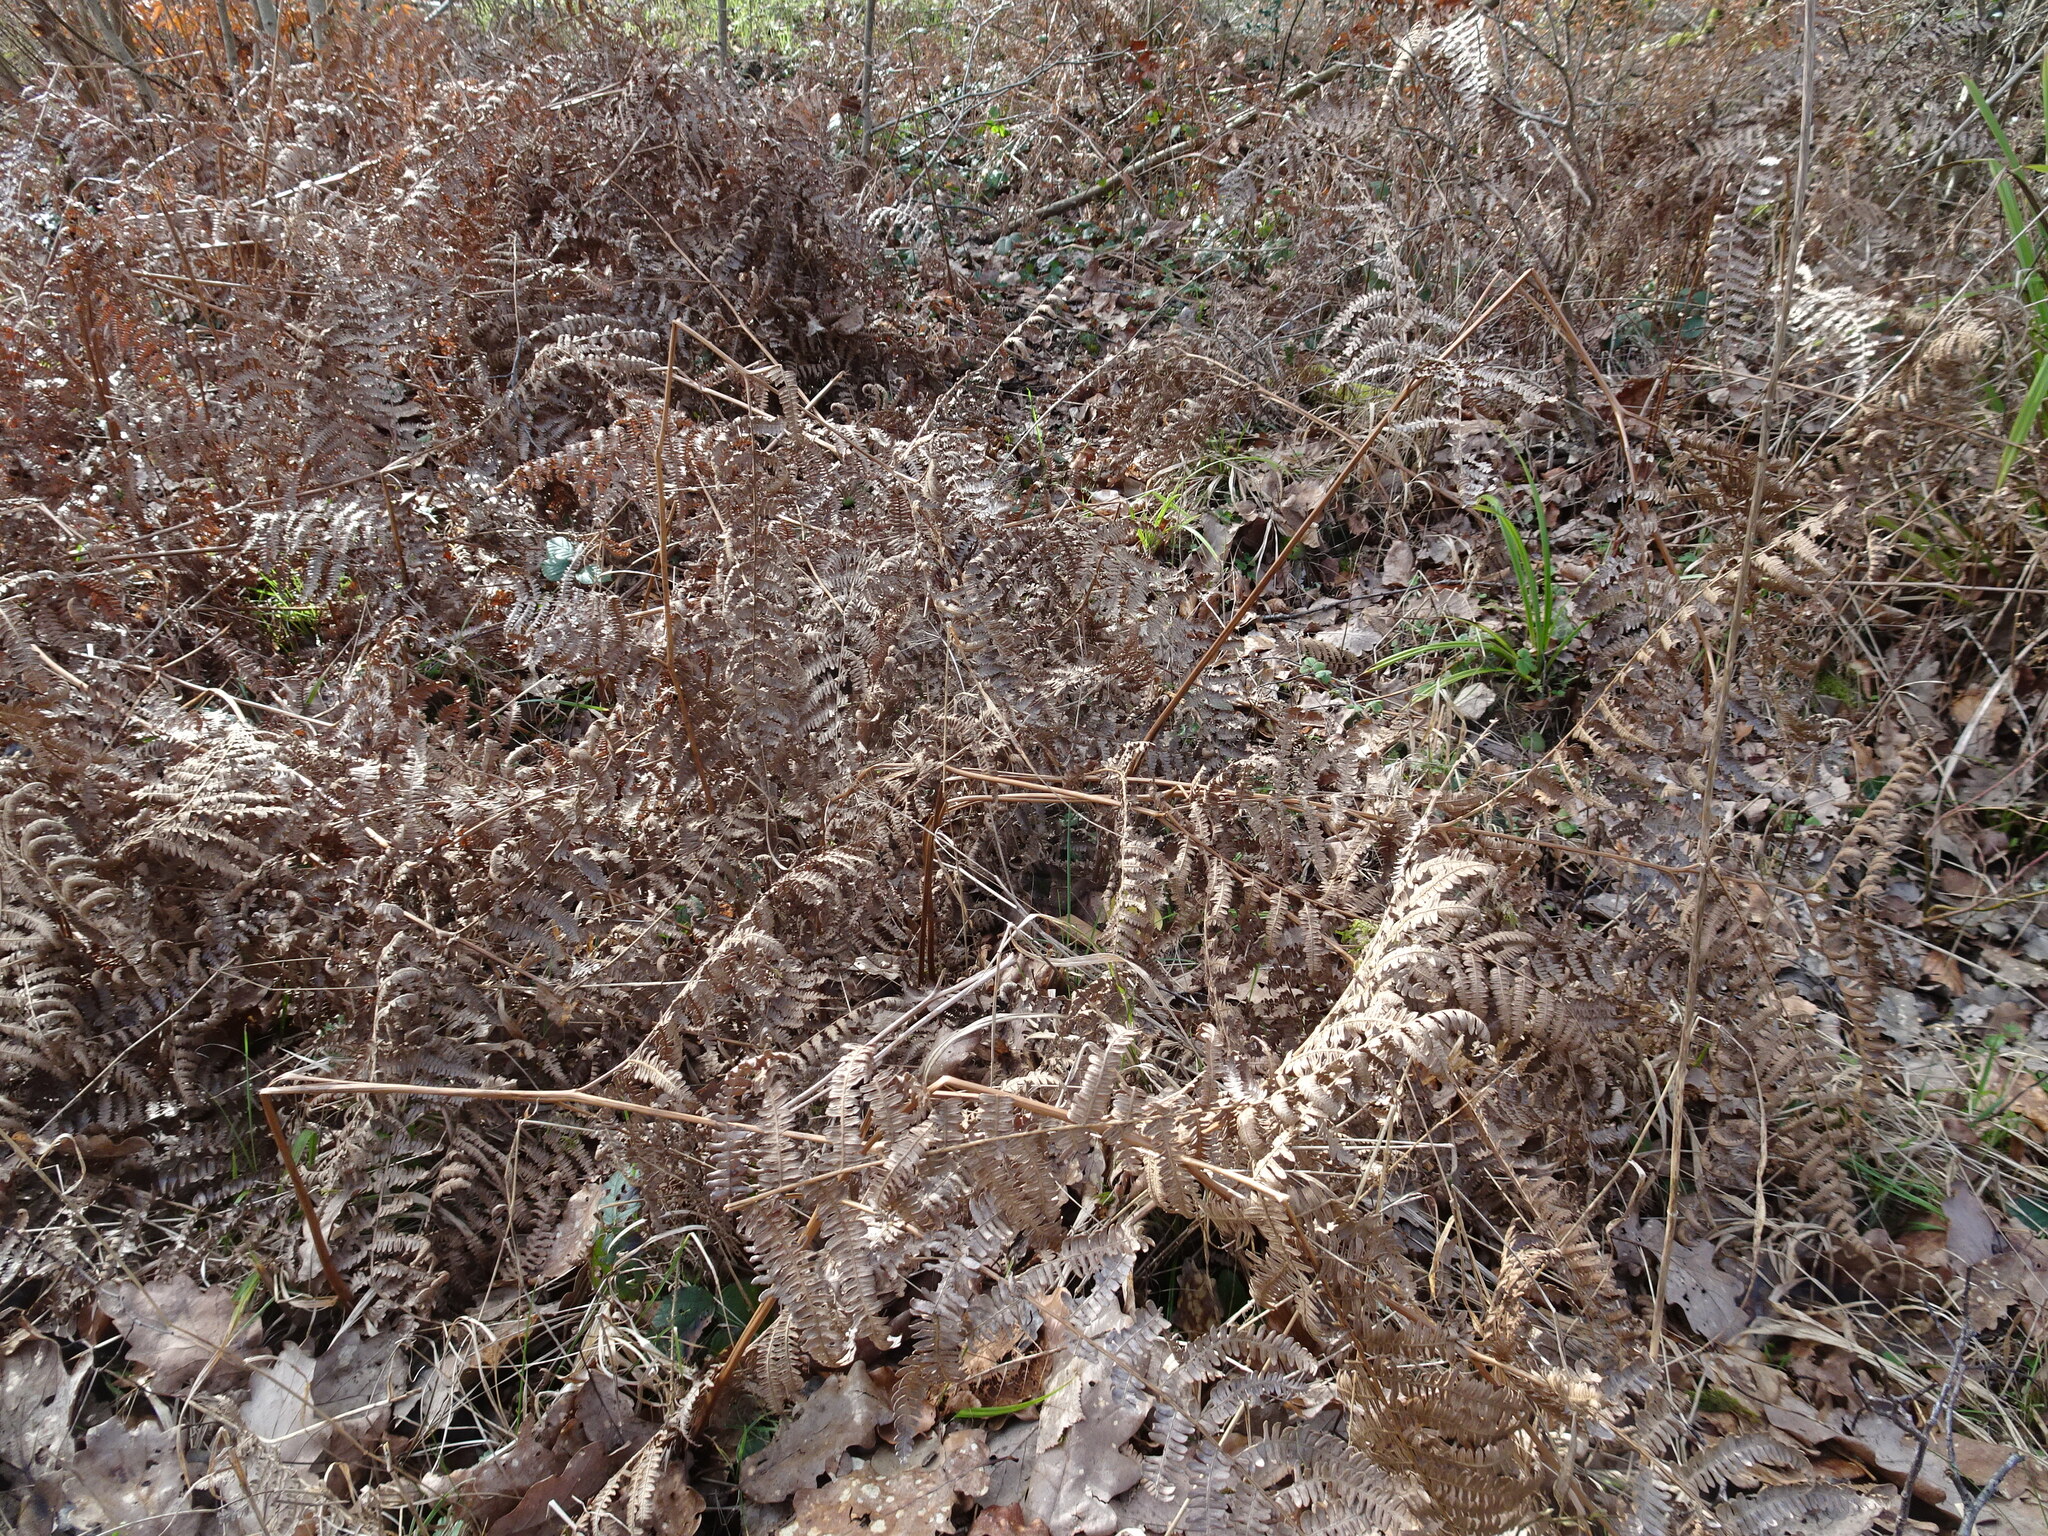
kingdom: Plantae
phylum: Tracheophyta
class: Polypodiopsida
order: Polypodiales
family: Dennstaedtiaceae
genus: Pteridium
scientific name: Pteridium aquilinum
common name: Bracken
